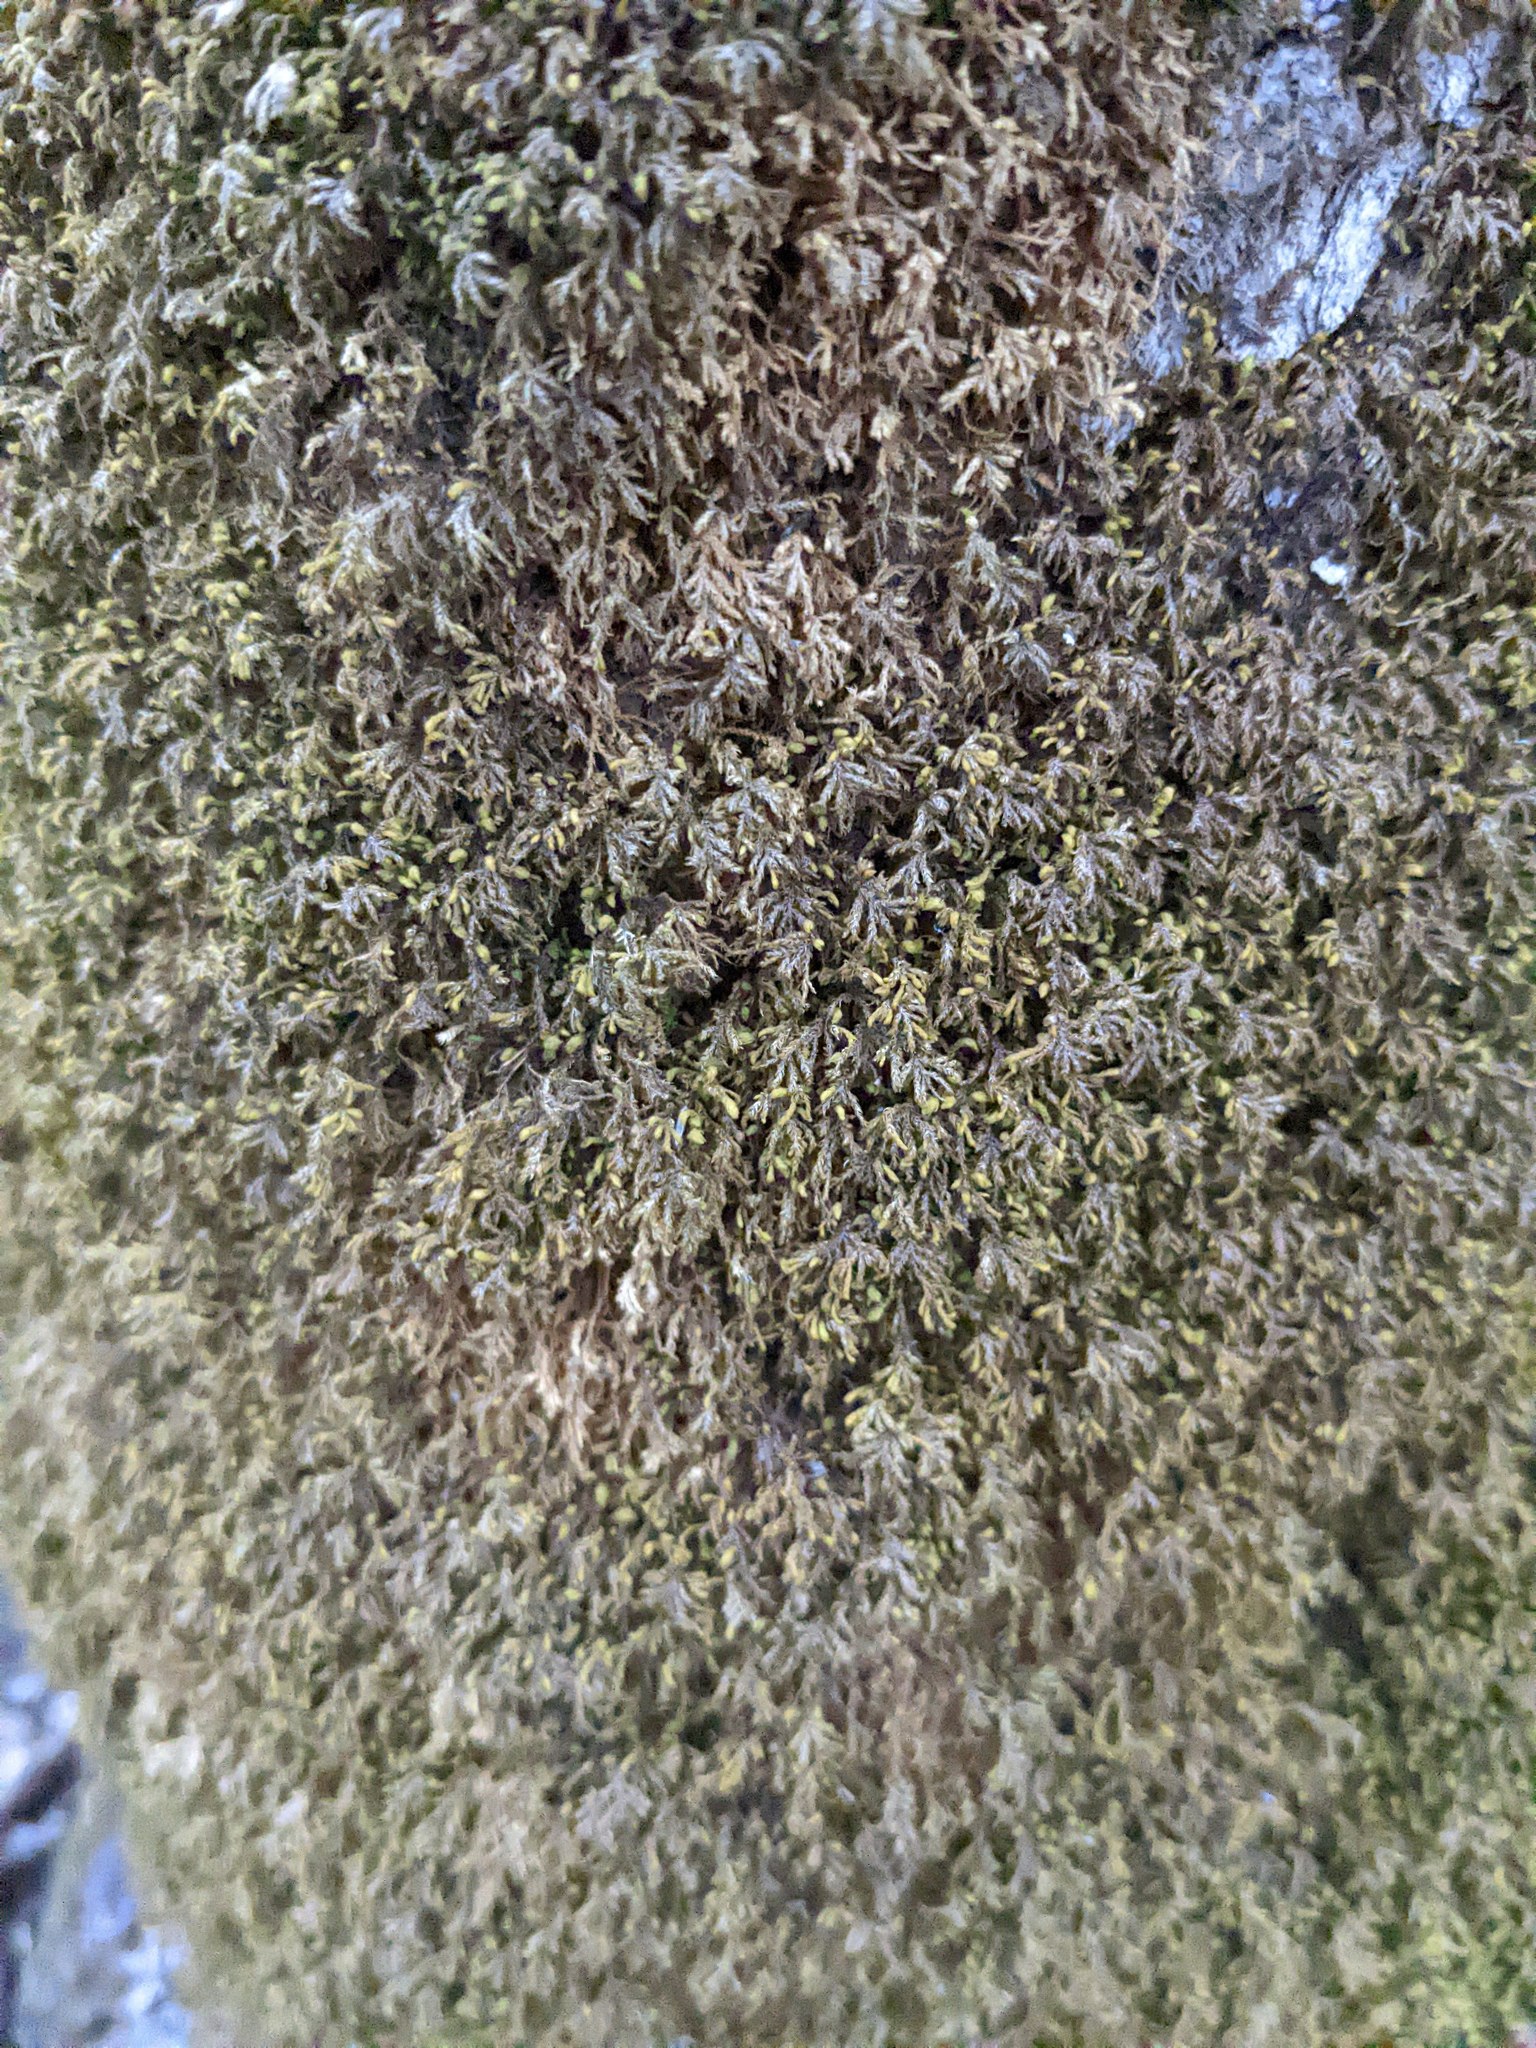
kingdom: Plantae
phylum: Bryophyta
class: Bryopsida
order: Hypnales
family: Neckeraceae
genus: Pseudanomodon
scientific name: Pseudanomodon attenuatus
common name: Tree-skirt moss
